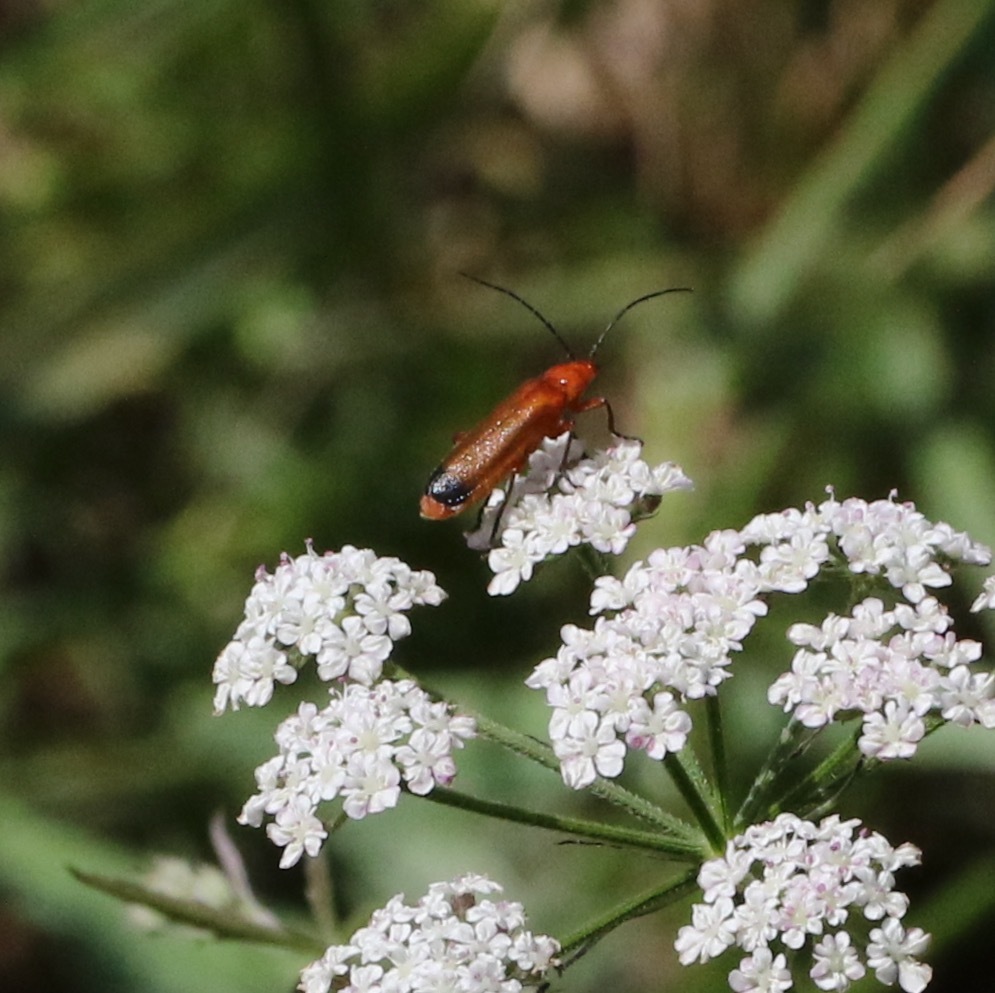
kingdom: Animalia
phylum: Arthropoda
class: Insecta
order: Coleoptera
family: Cantharidae
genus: Rhagonycha
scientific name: Rhagonycha fulva
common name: Common red soldier beetle
